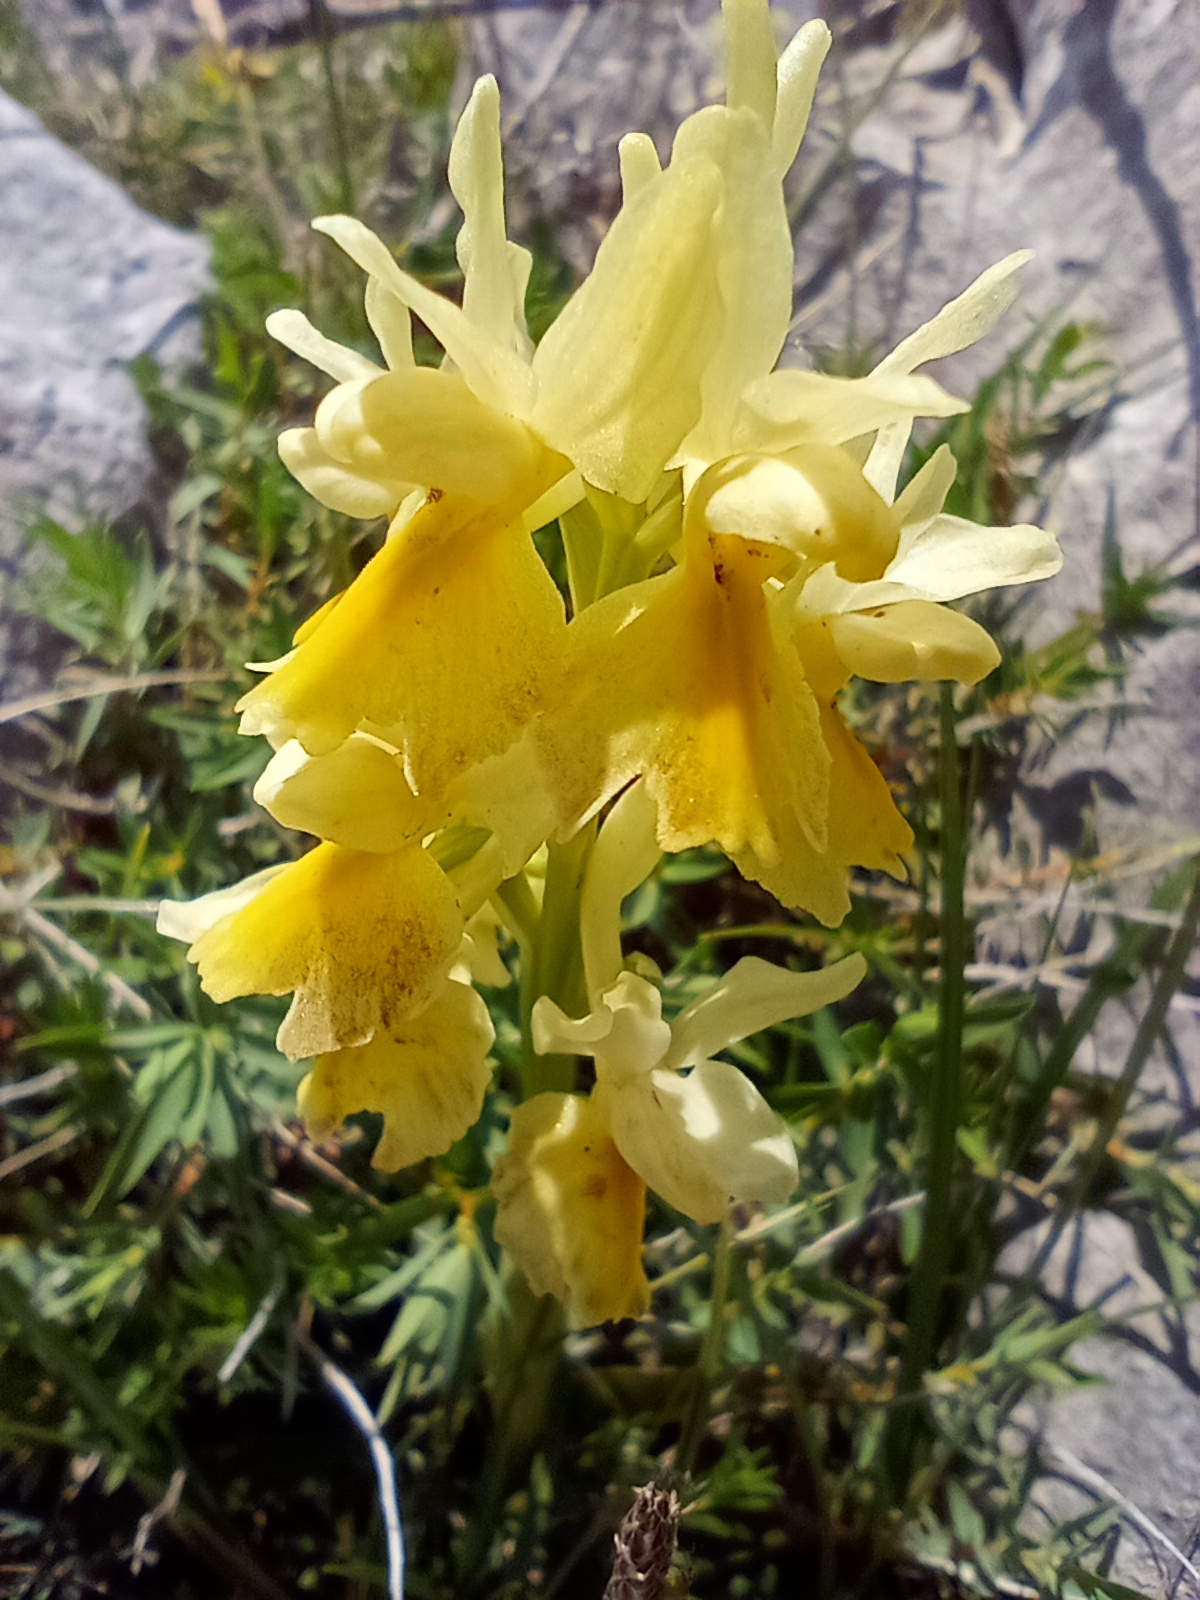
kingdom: Plantae
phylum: Tracheophyta
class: Liliopsida
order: Asparagales
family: Orchidaceae
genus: Orchis
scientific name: Orchis pauciflora
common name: Few-flowered orchid
